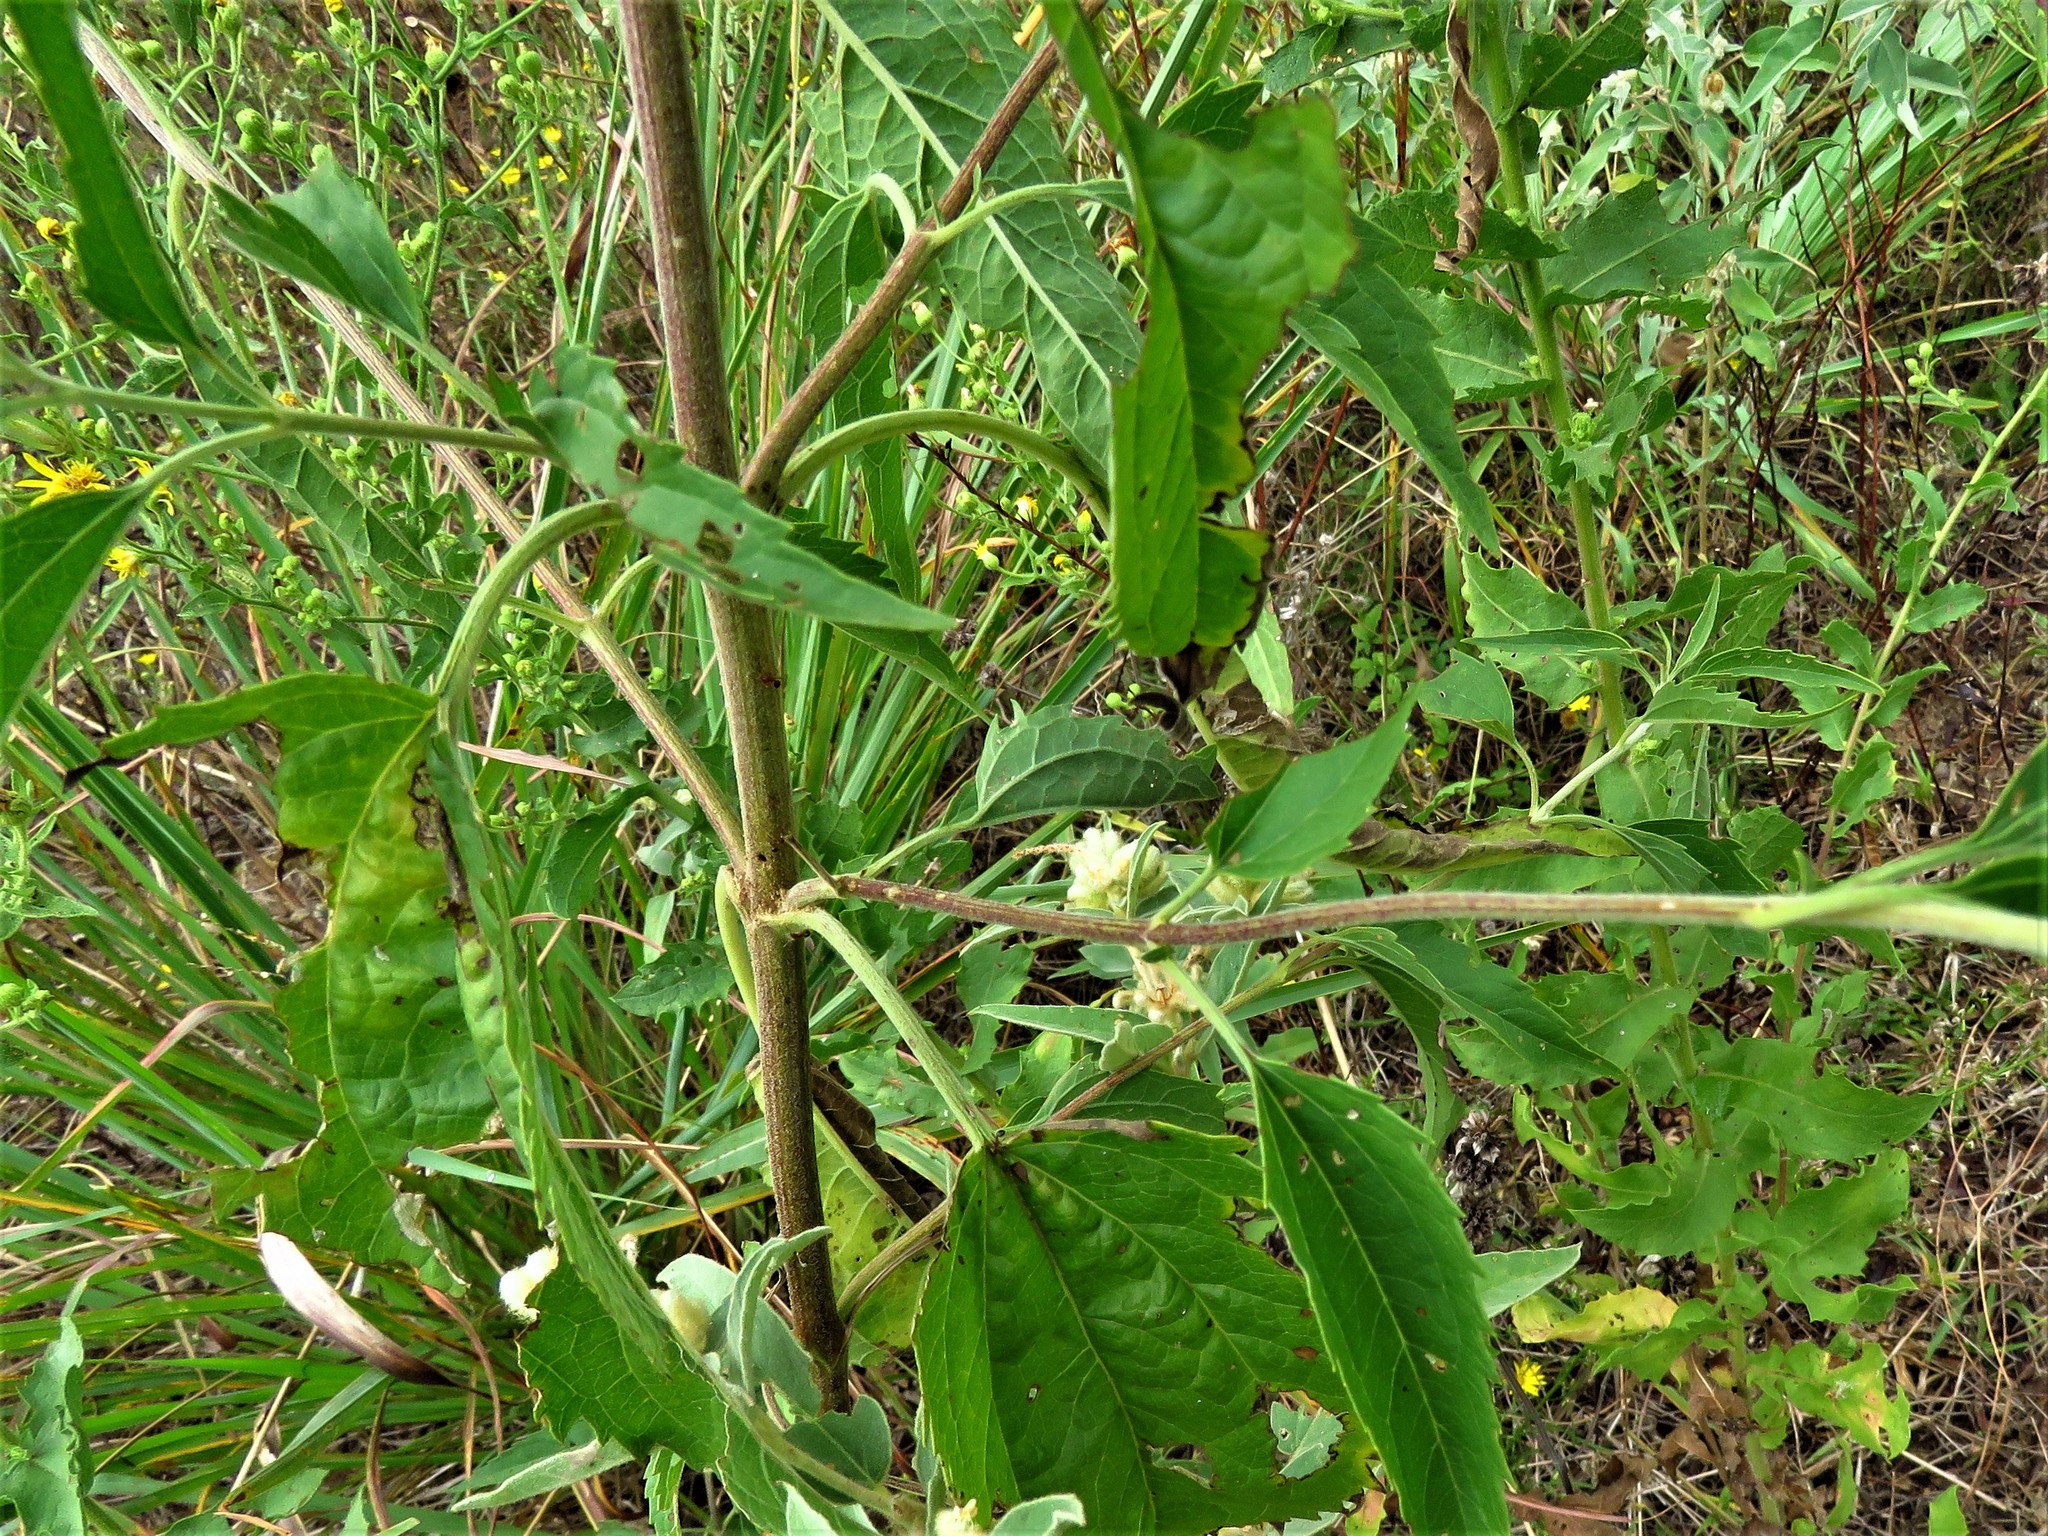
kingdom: Plantae
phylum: Tracheophyta
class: Magnoliopsida
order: Asterales
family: Asteraceae
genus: Eupatorium
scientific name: Eupatorium serotinum
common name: Late boneset
